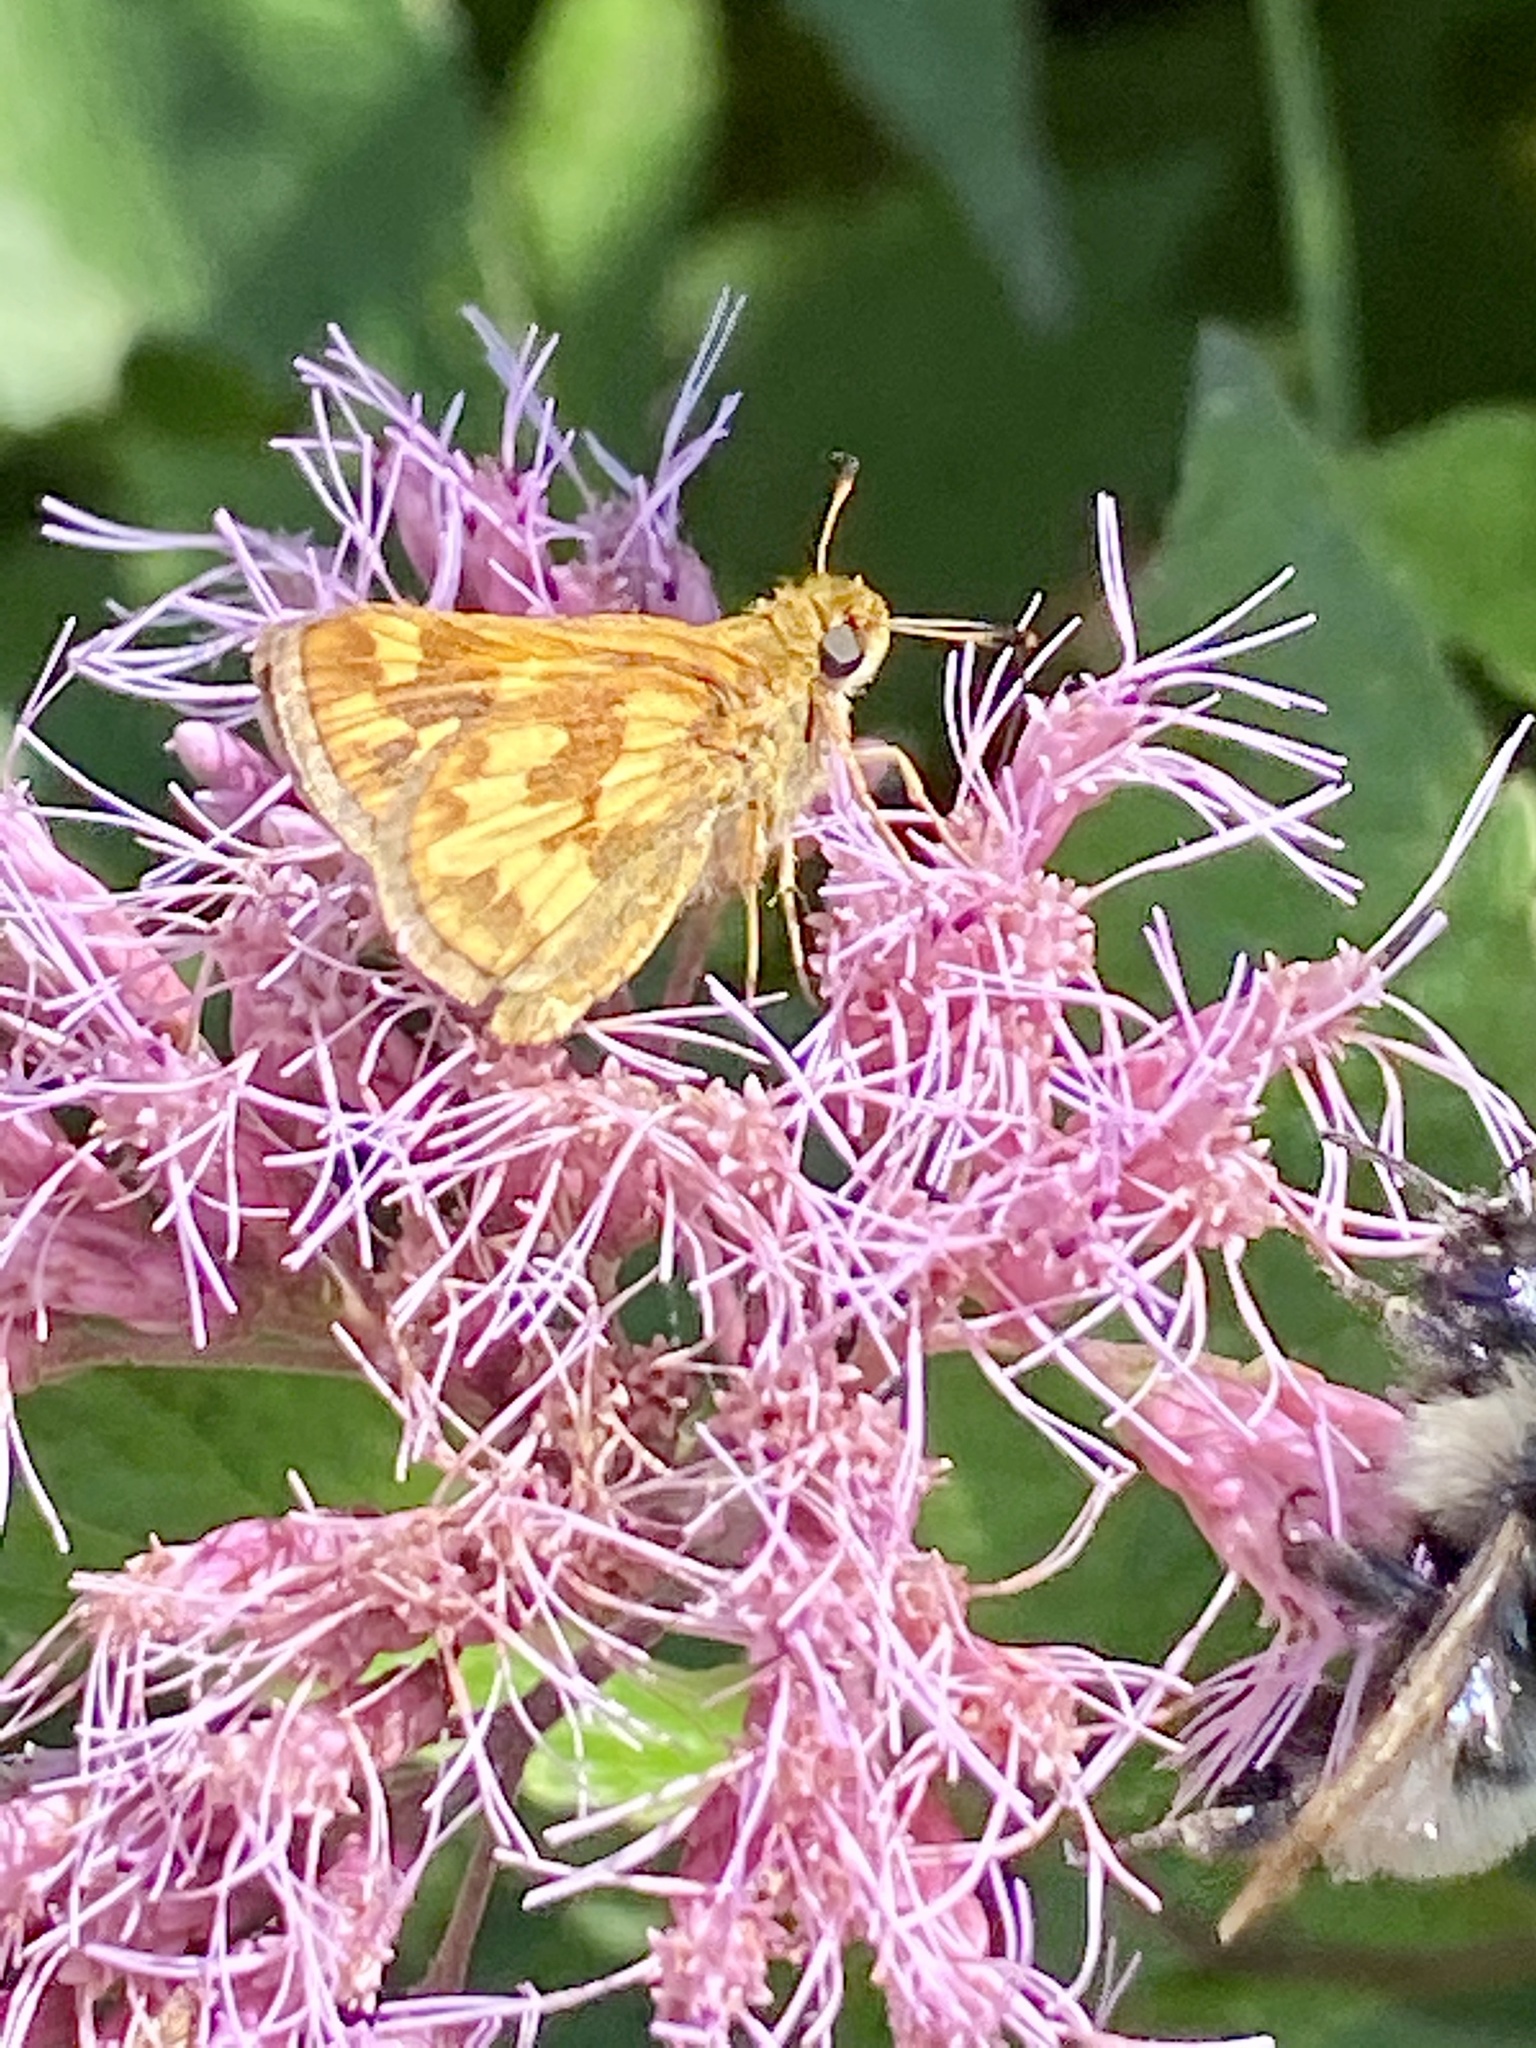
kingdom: Animalia
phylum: Arthropoda
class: Insecta
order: Lepidoptera
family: Hesperiidae
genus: Polites
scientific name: Polites coras
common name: Peck's skipper
